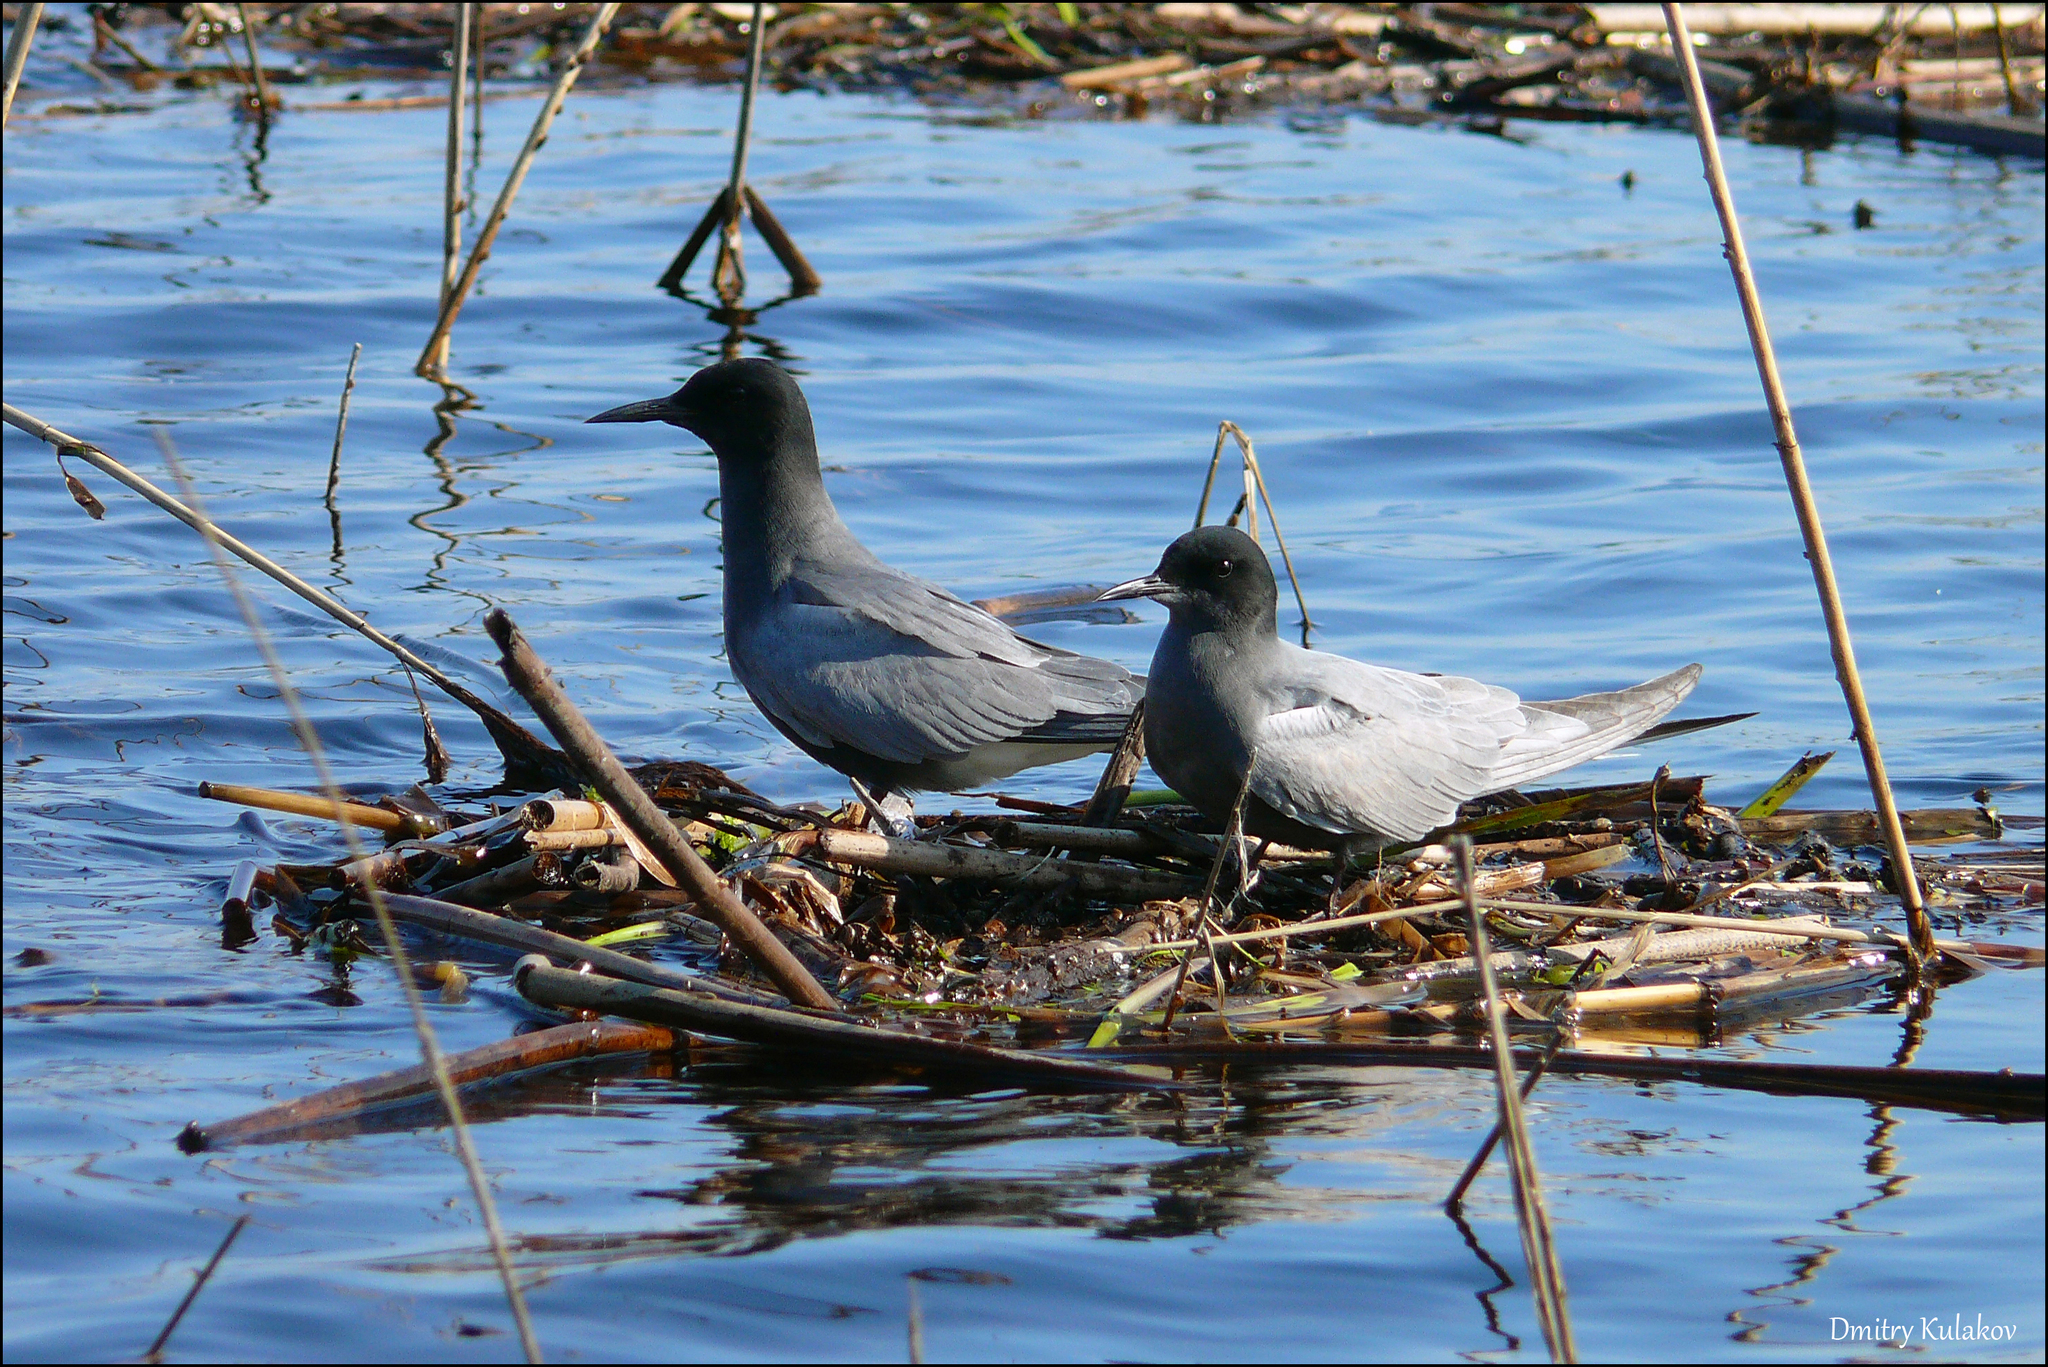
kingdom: Animalia
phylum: Chordata
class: Aves
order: Charadriiformes
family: Laridae
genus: Chlidonias
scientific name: Chlidonias niger
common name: Black tern
